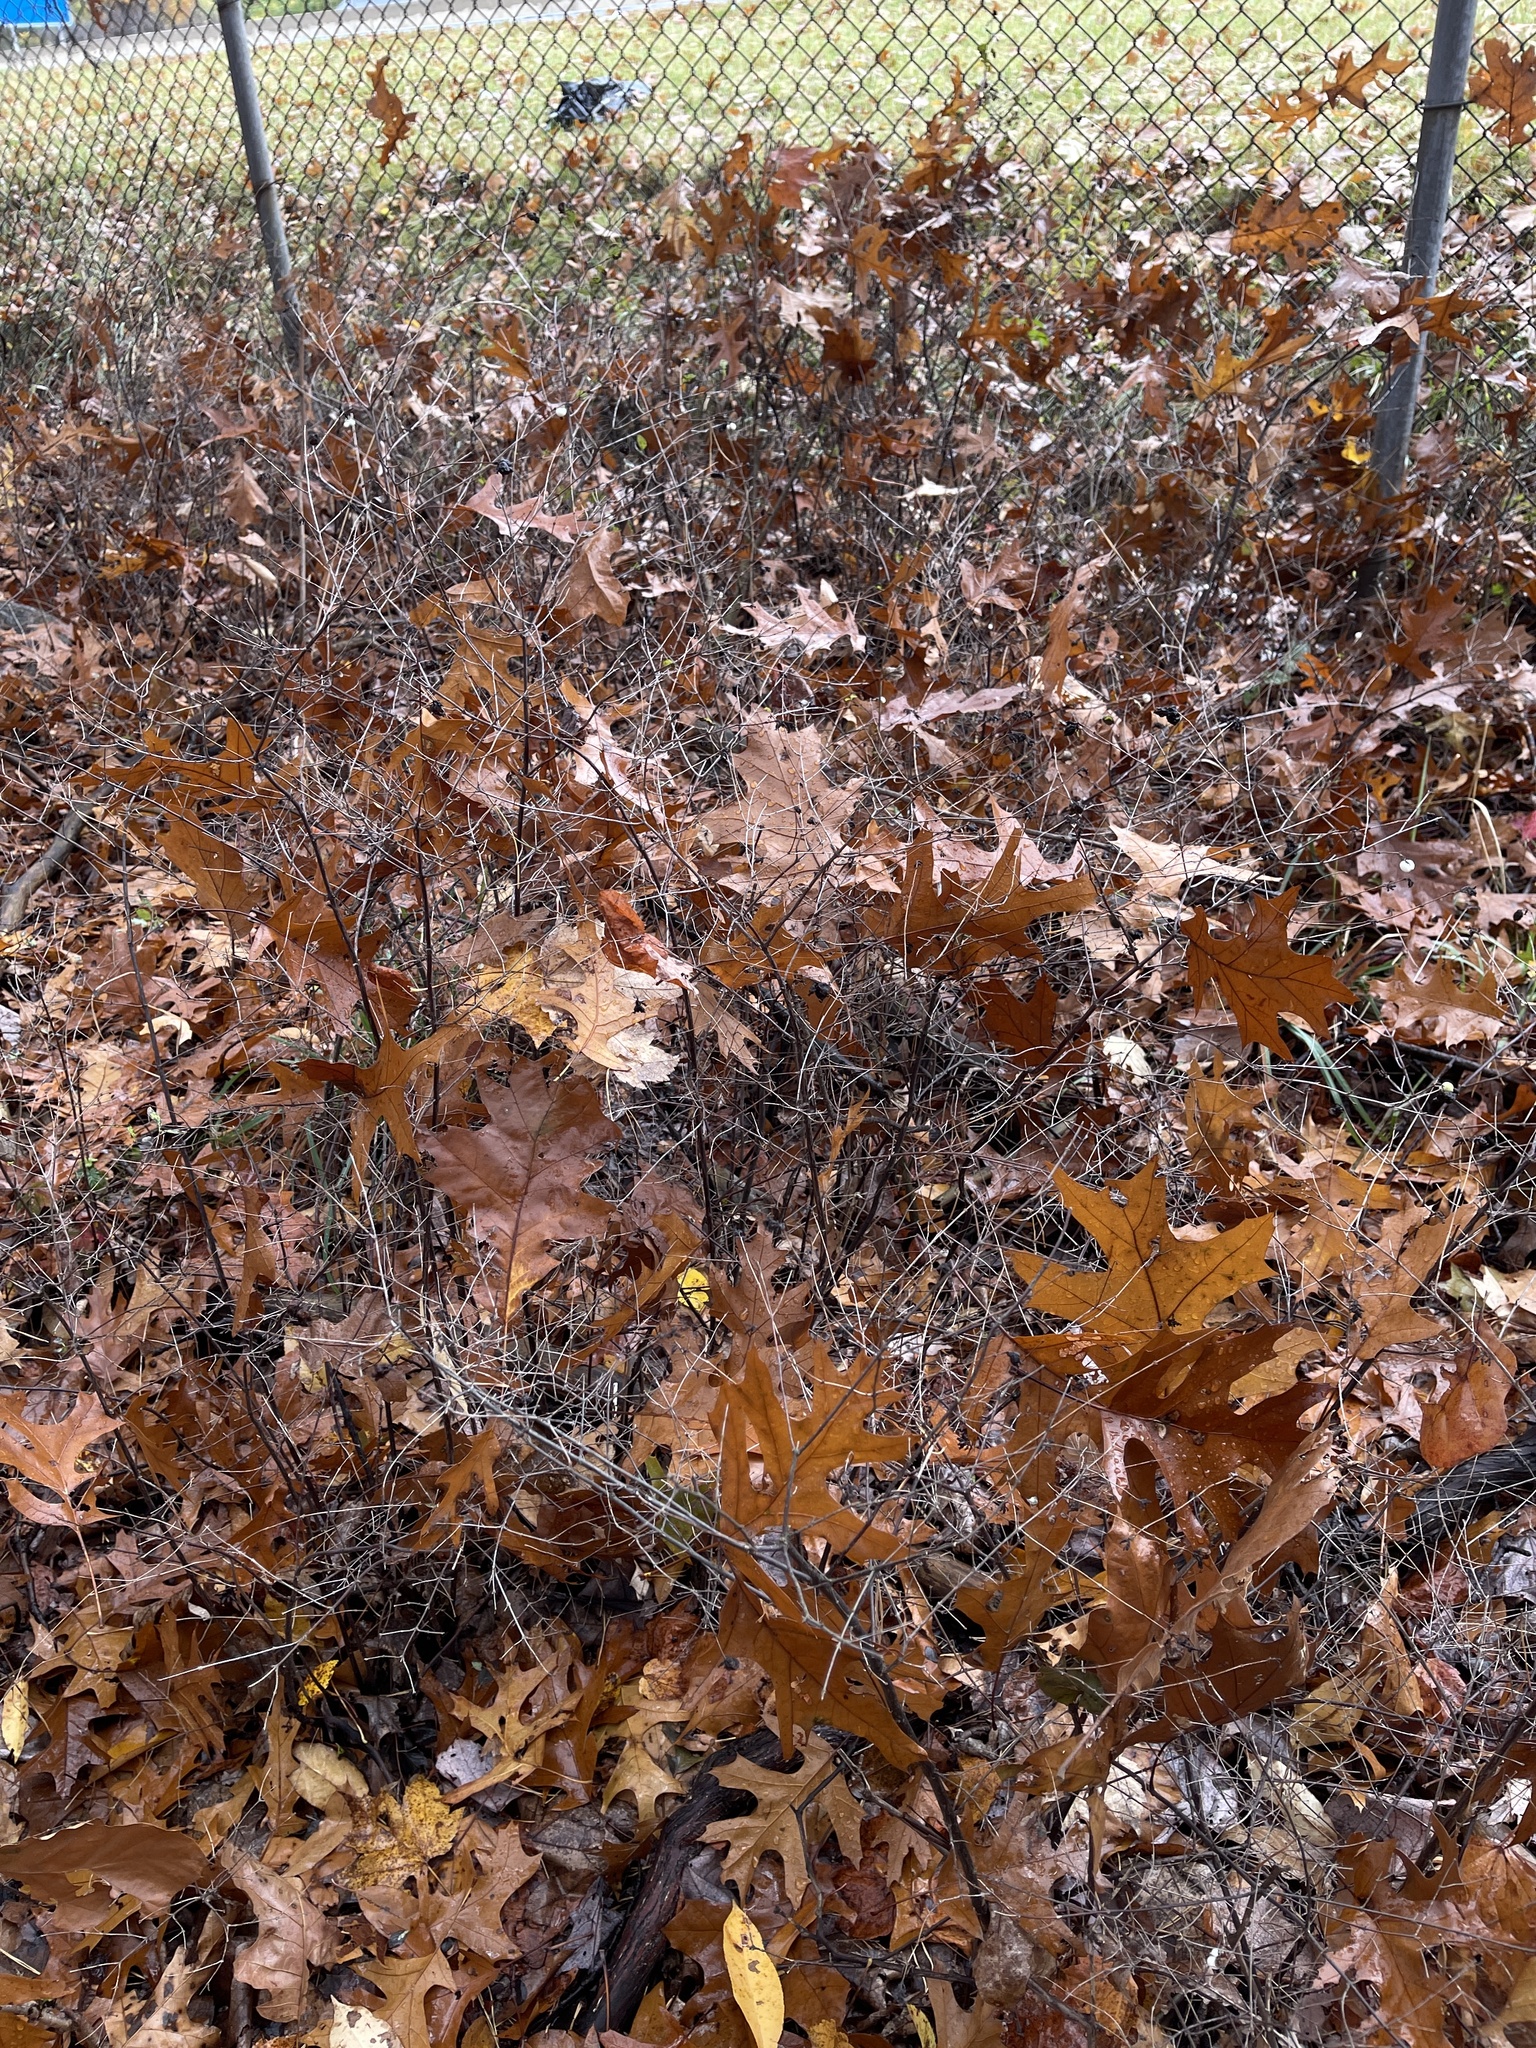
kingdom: Plantae
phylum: Tracheophyta
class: Magnoliopsida
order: Dipsacales
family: Caprifoliaceae
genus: Symphoricarpos
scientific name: Symphoricarpos albus
